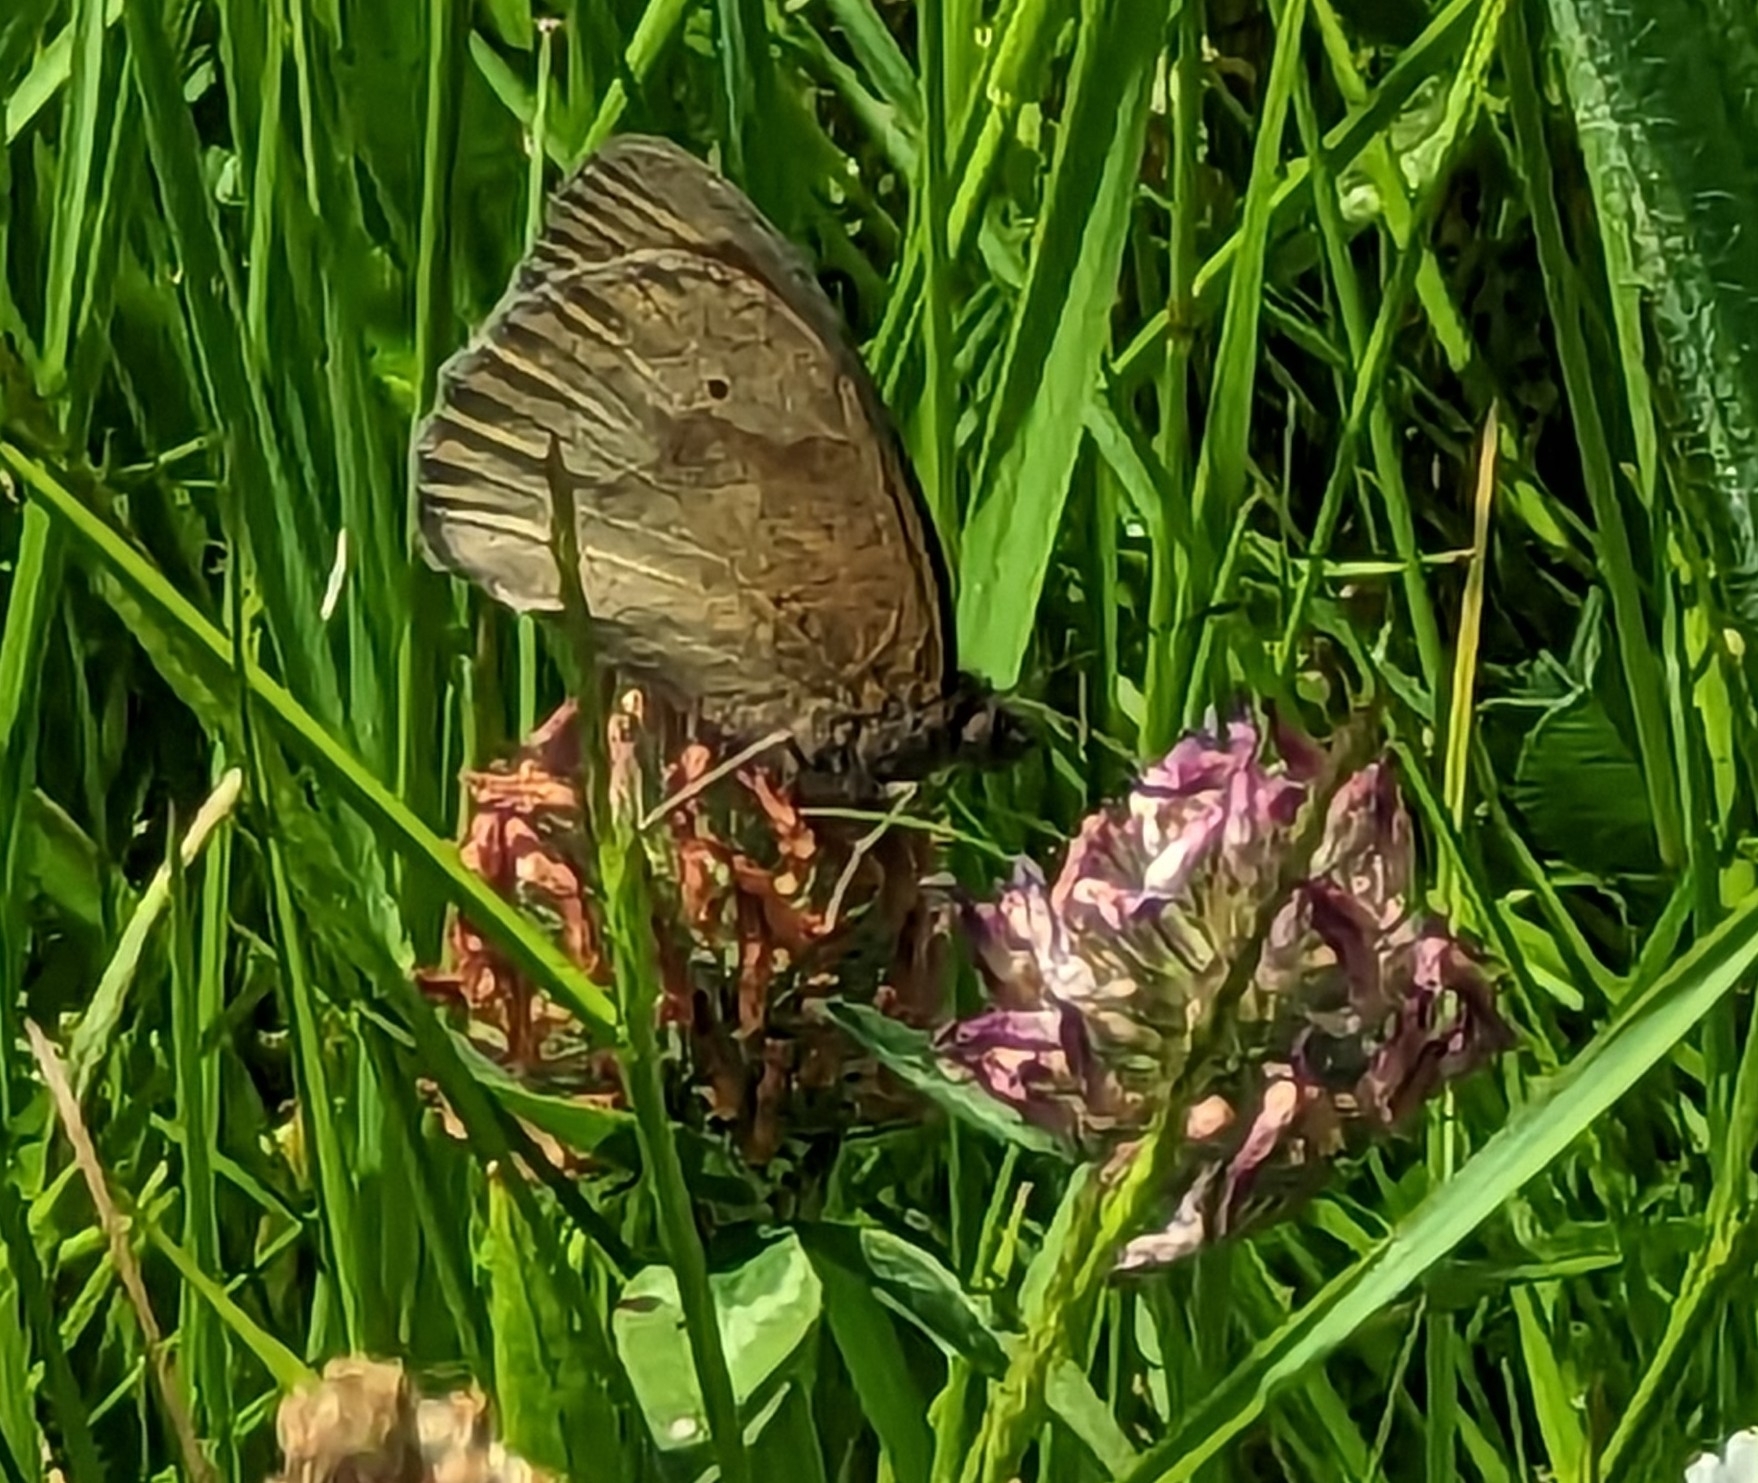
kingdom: Animalia
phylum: Arthropoda
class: Insecta
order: Lepidoptera
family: Nymphalidae
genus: Maniola
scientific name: Maniola jurtina
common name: Meadow brown
